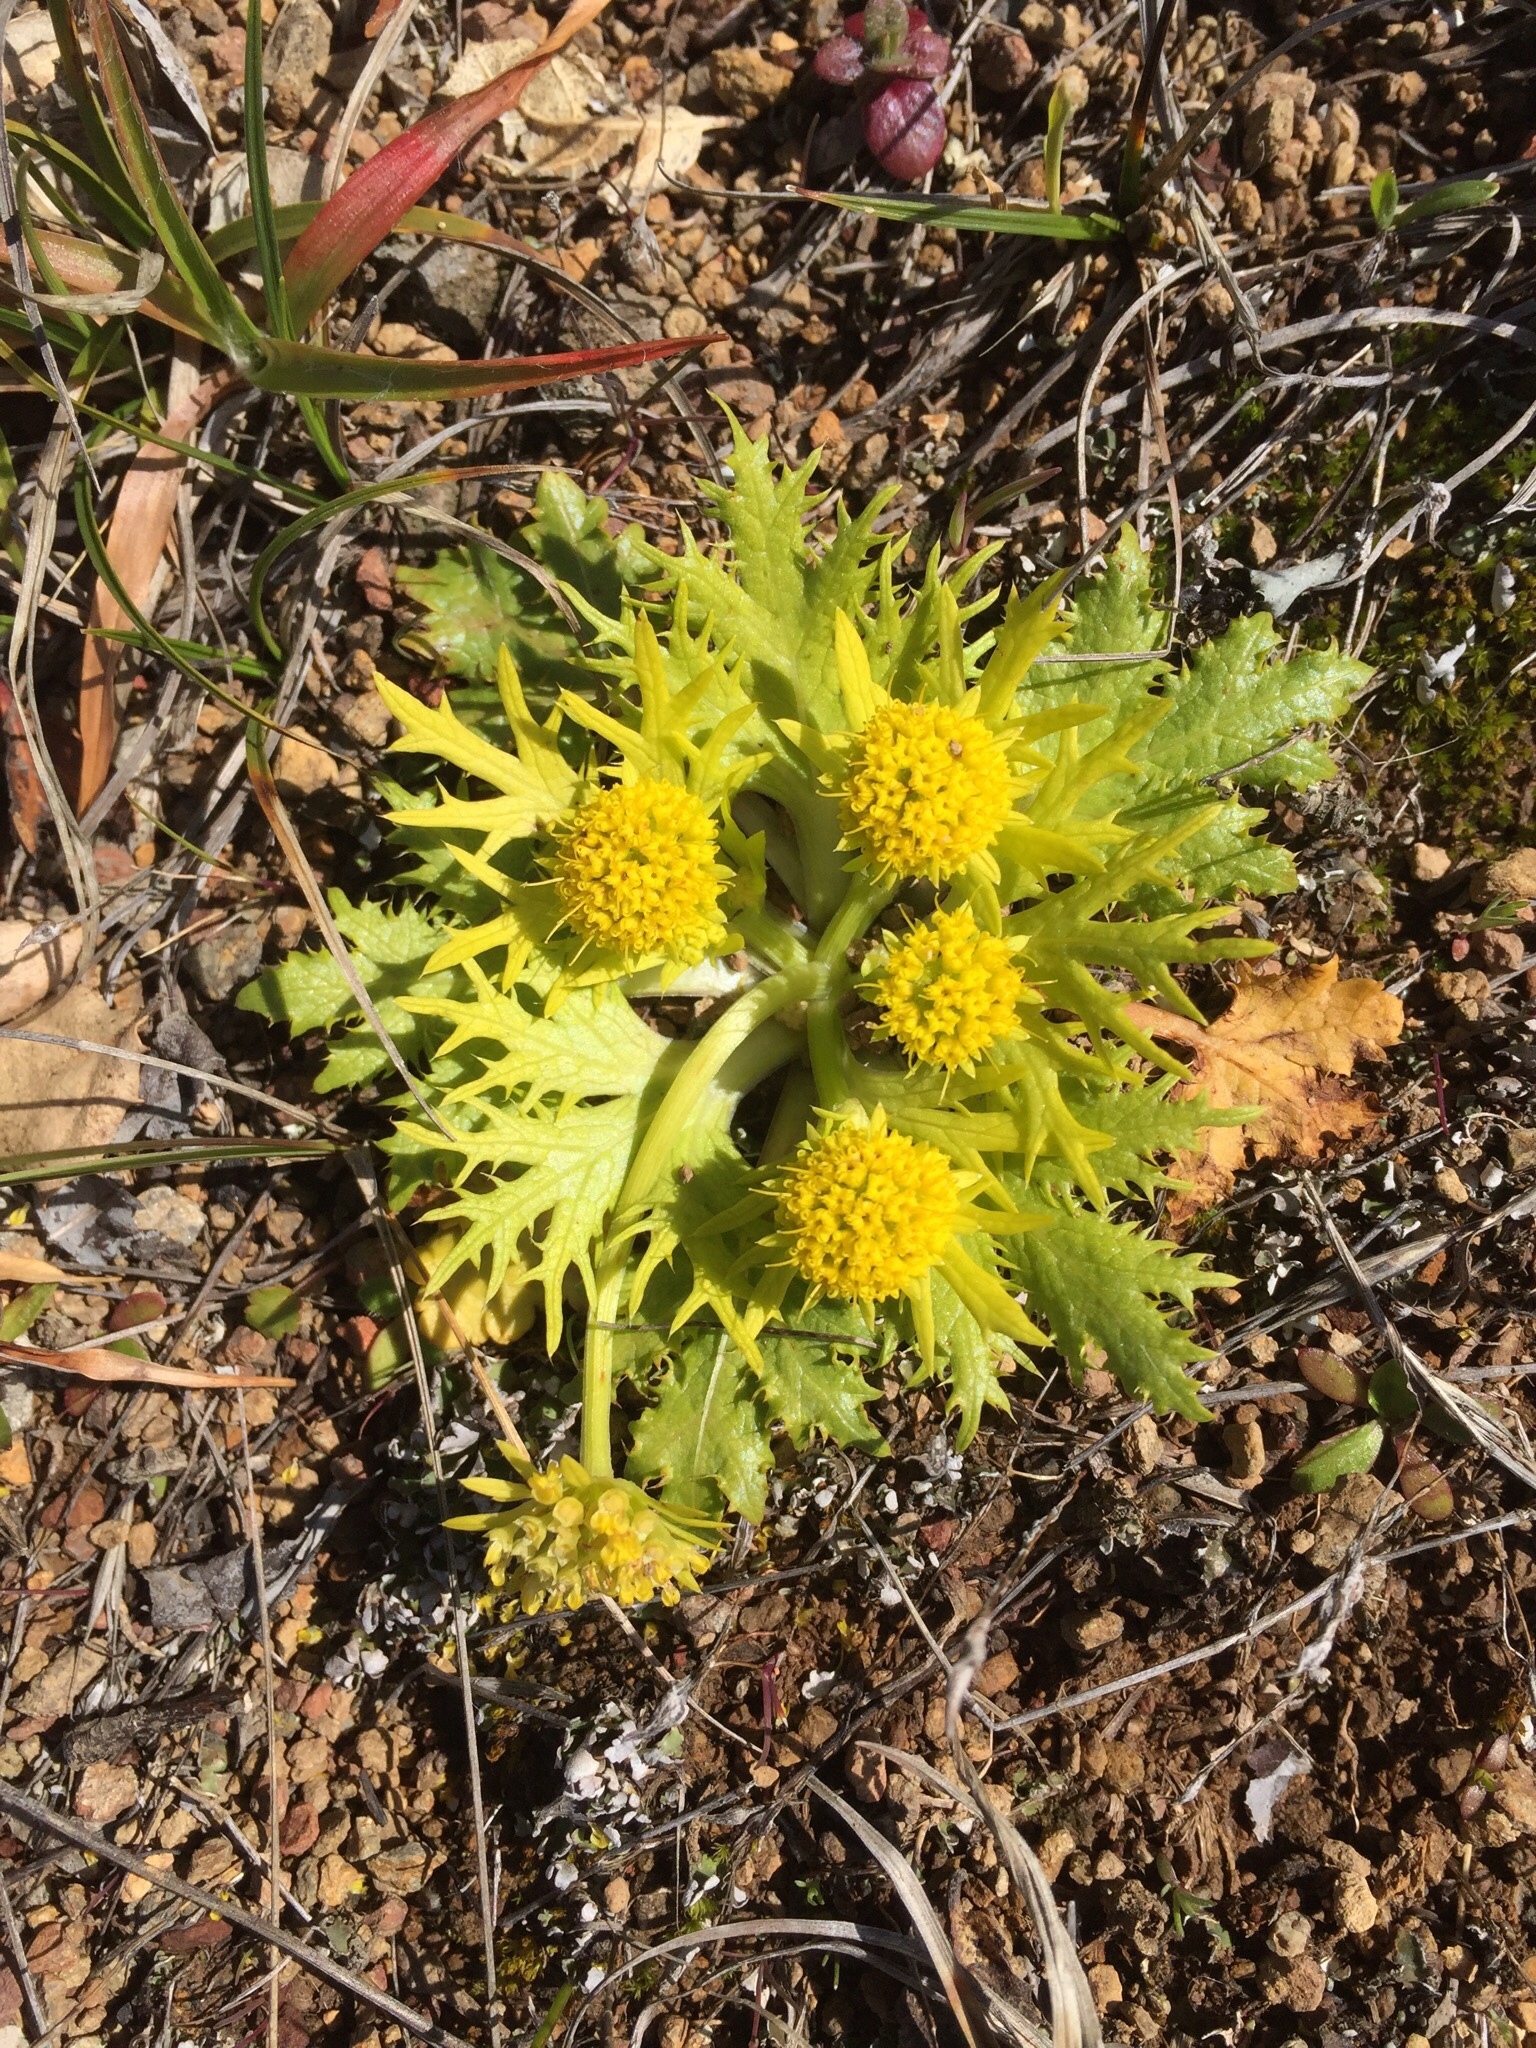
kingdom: Plantae
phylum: Tracheophyta
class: Magnoliopsida
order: Apiales
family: Apiaceae
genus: Sanicula
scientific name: Sanicula arctopoides
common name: Footsteps-of-spring
